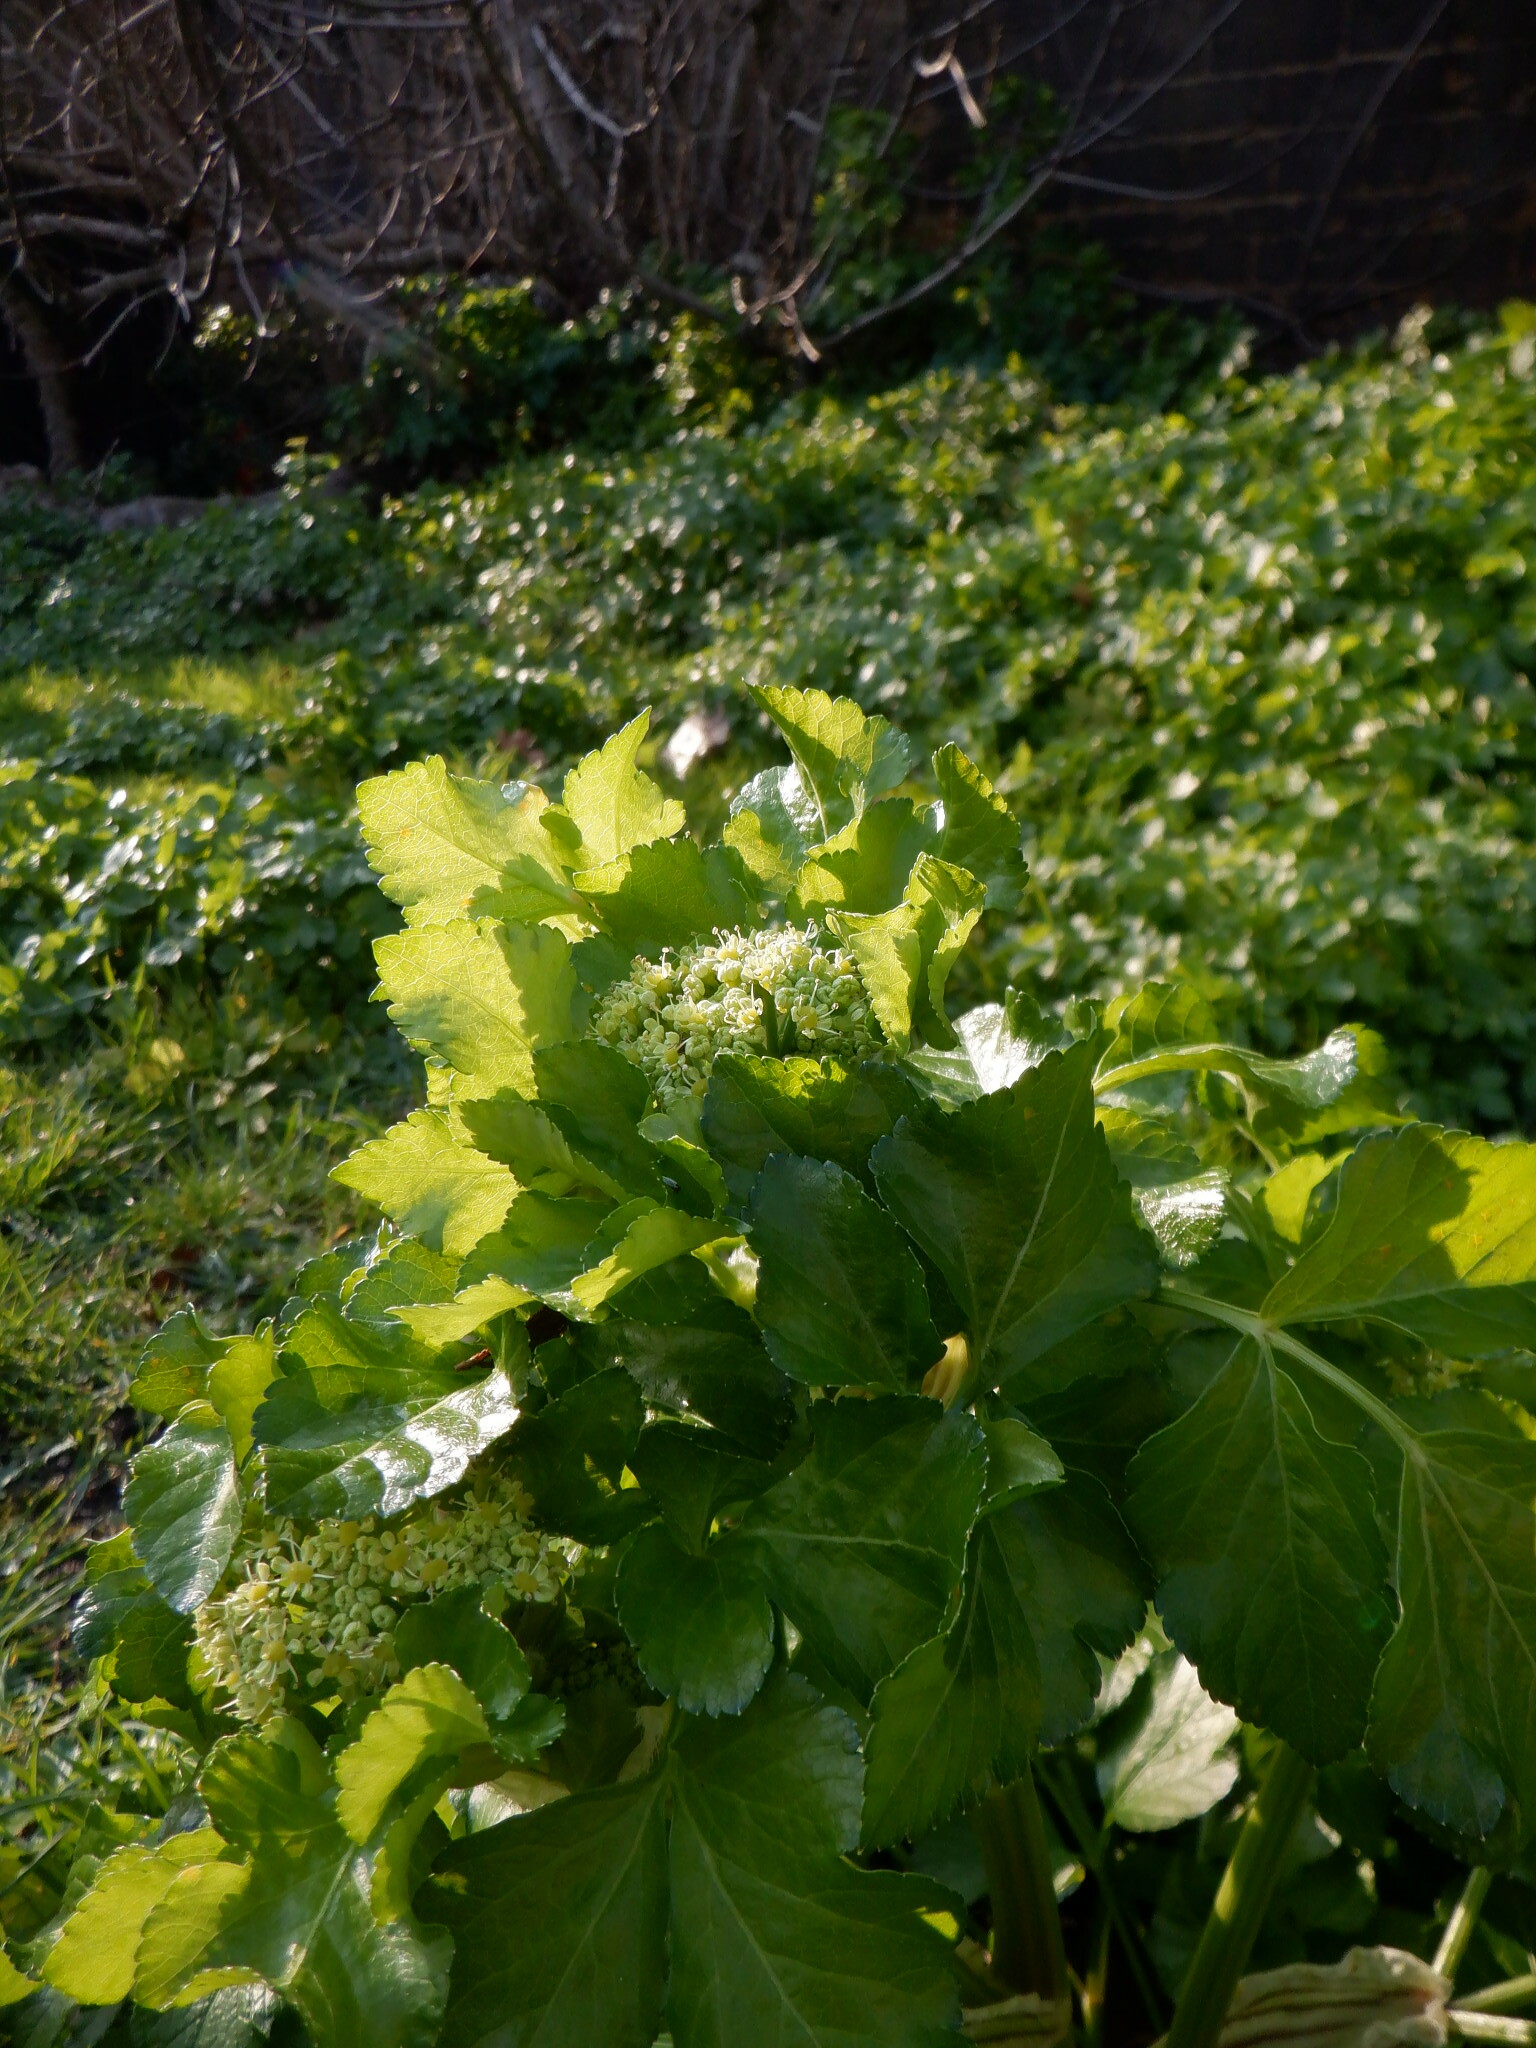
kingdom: Plantae
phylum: Tracheophyta
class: Magnoliopsida
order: Apiales
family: Apiaceae
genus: Smyrnium
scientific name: Smyrnium olusatrum
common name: Alexanders
